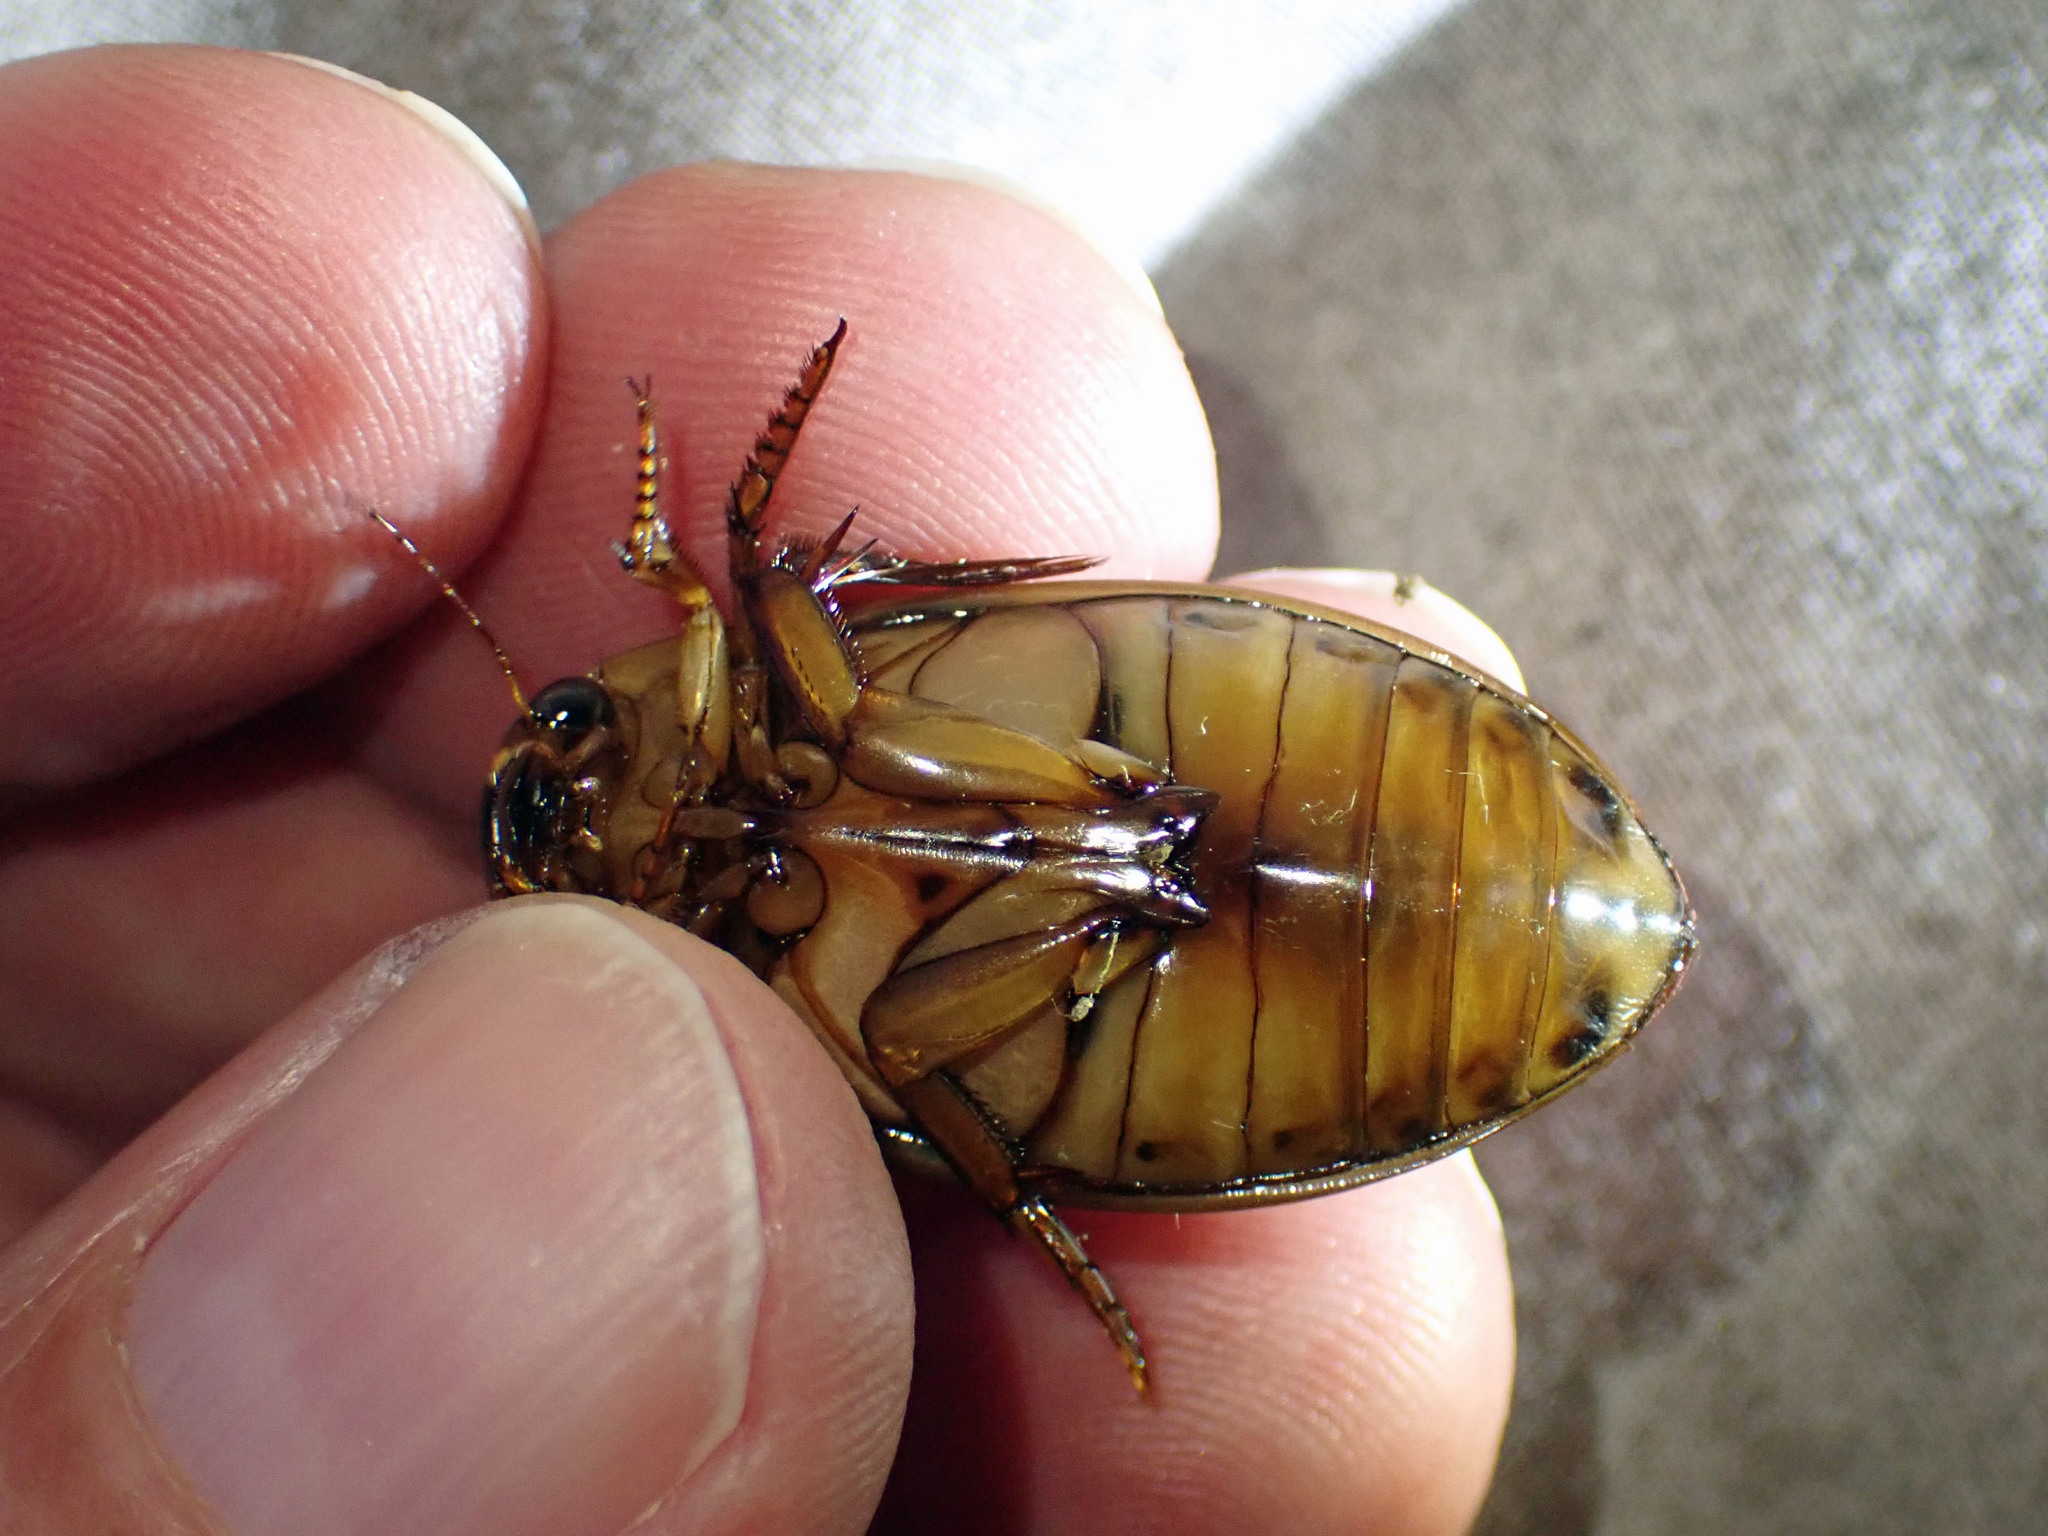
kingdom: Animalia
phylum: Arthropoda
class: Insecta
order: Coleoptera
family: Dytiscidae
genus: Dytiscus
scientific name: Dytiscus cordieri
